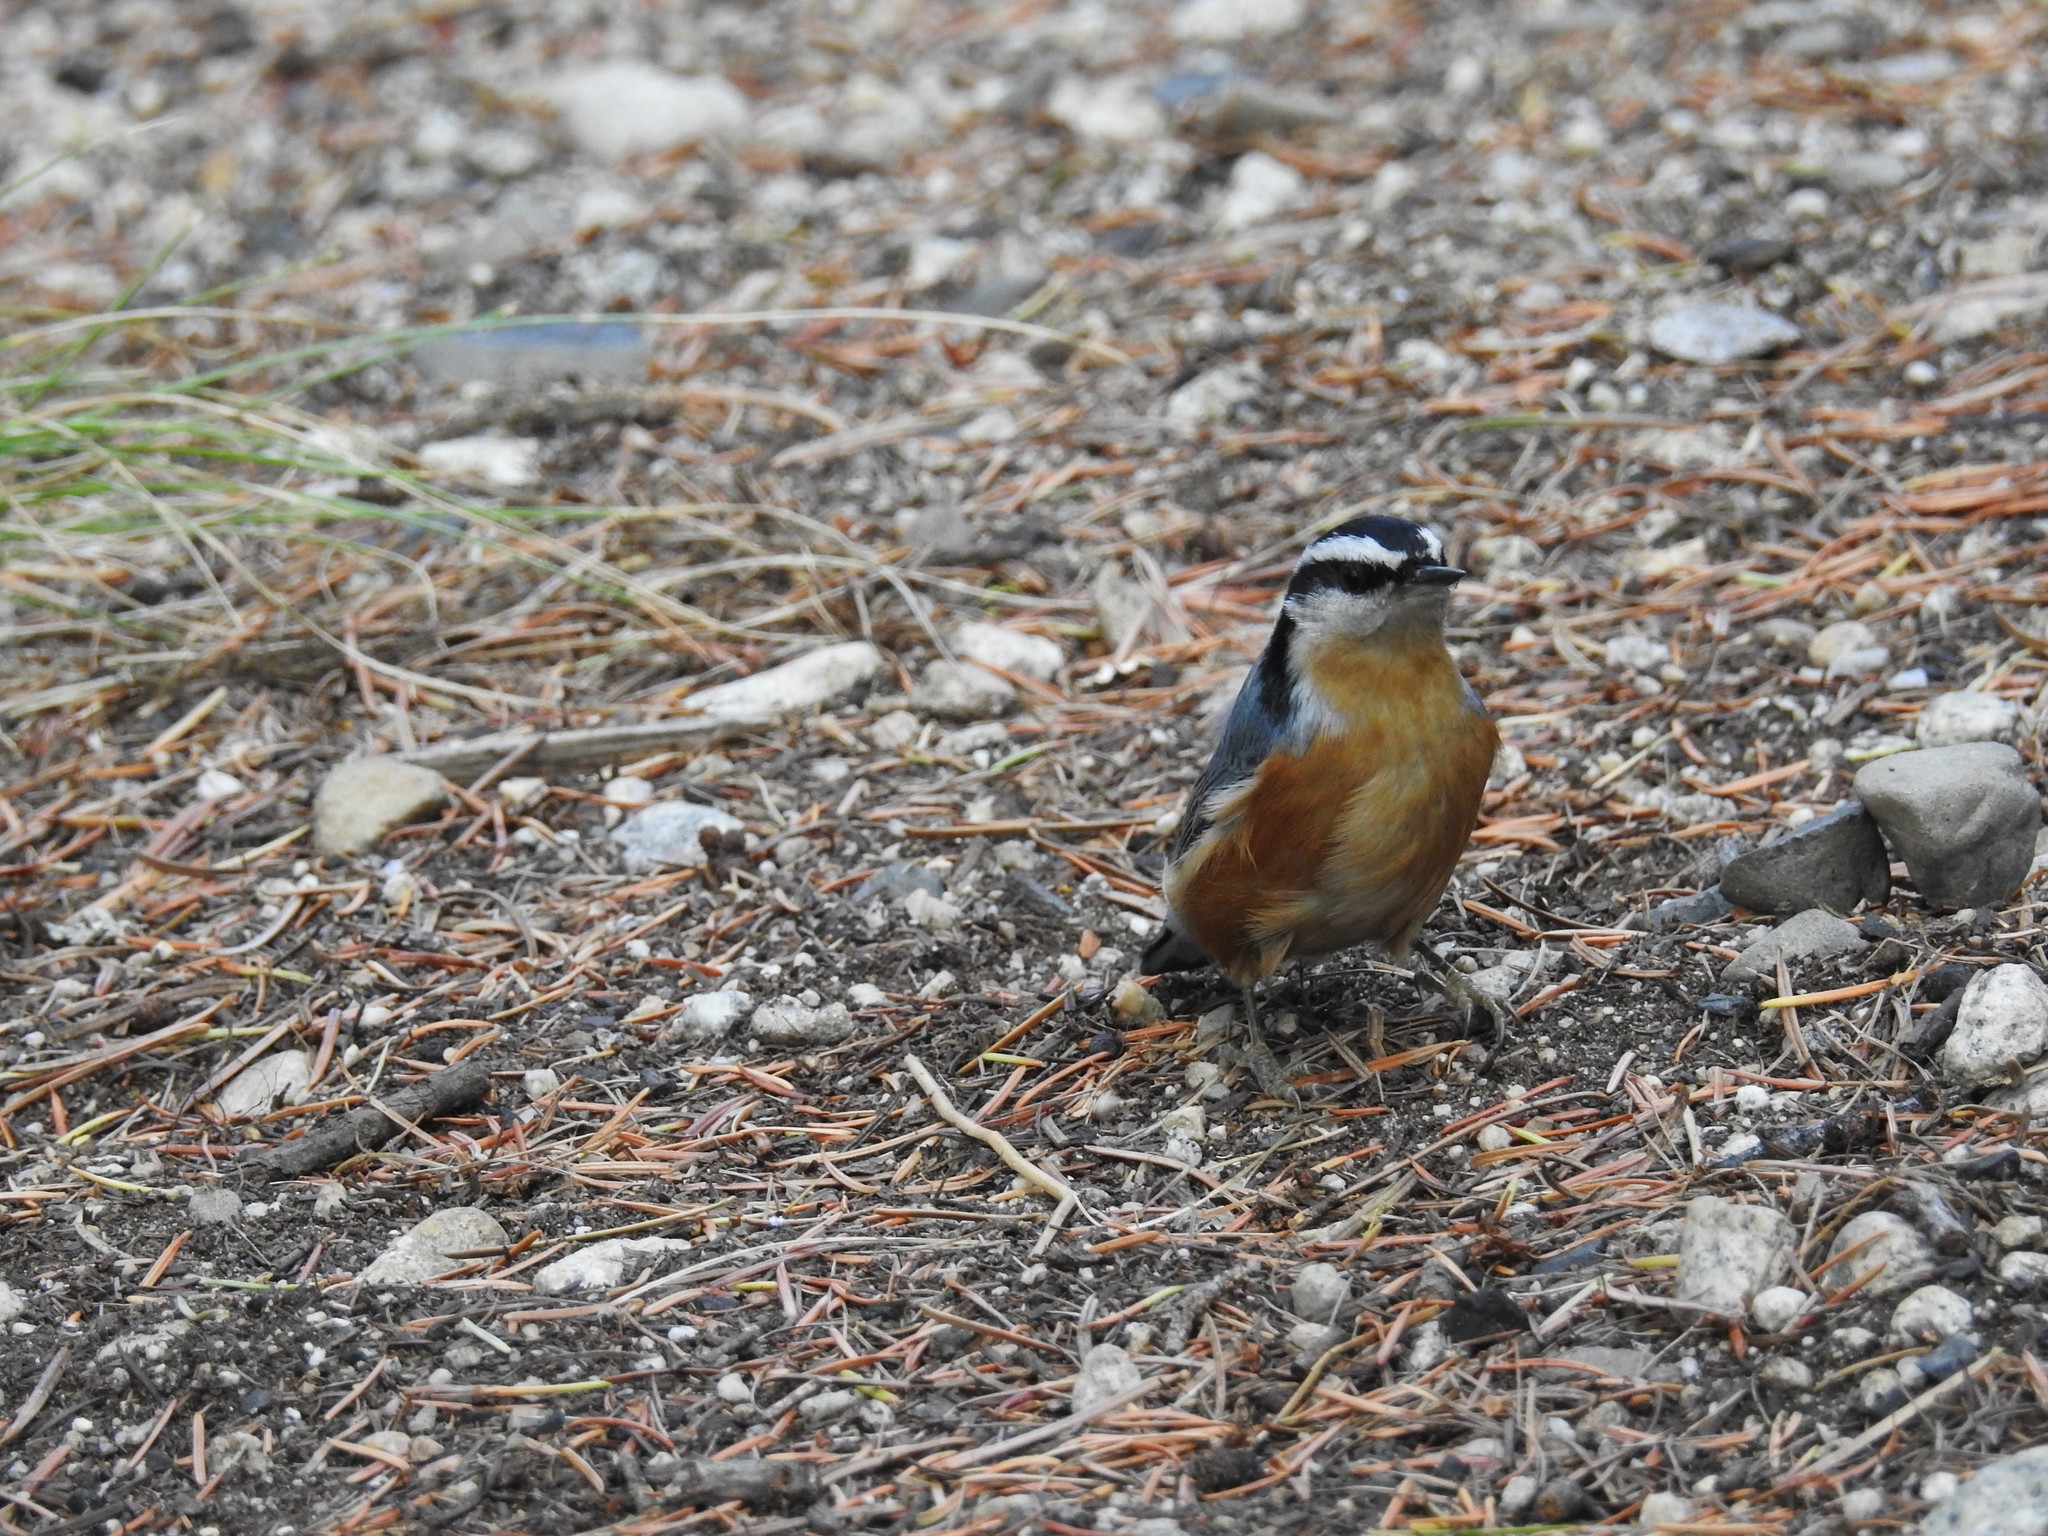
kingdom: Animalia
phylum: Chordata
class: Aves
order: Passeriformes
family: Sittidae
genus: Sitta
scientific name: Sitta canadensis
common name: Red-breasted nuthatch
